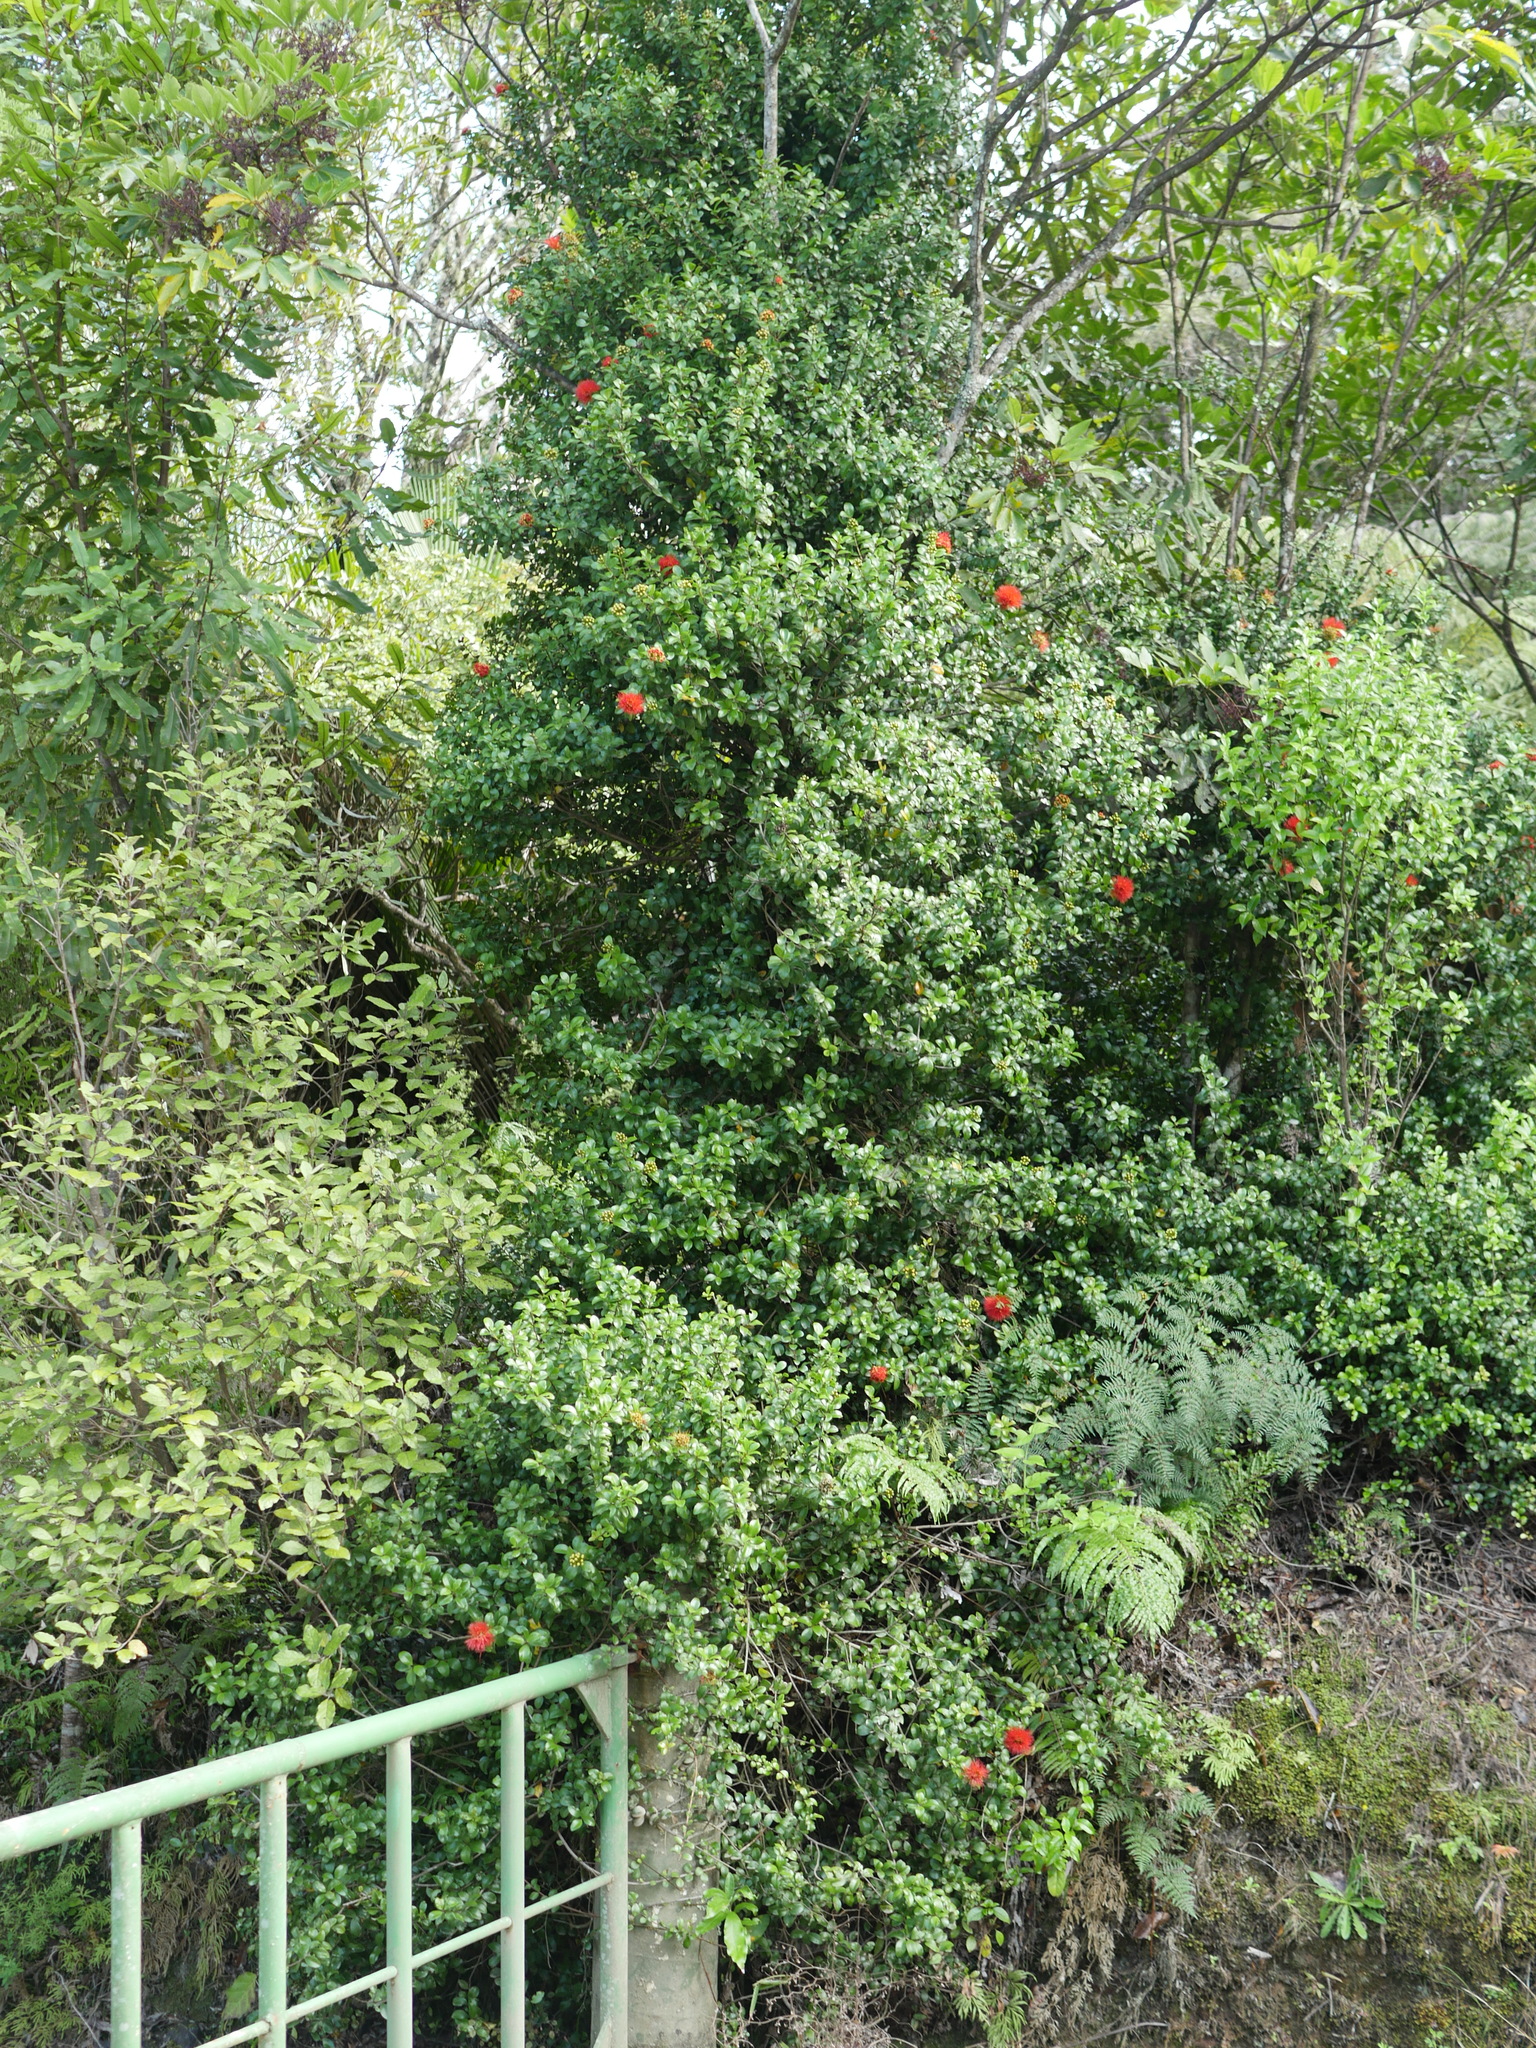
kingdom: Plantae
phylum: Tracheophyta
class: Magnoliopsida
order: Myrtales
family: Myrtaceae
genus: Metrosideros
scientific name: Metrosideros fulgens
